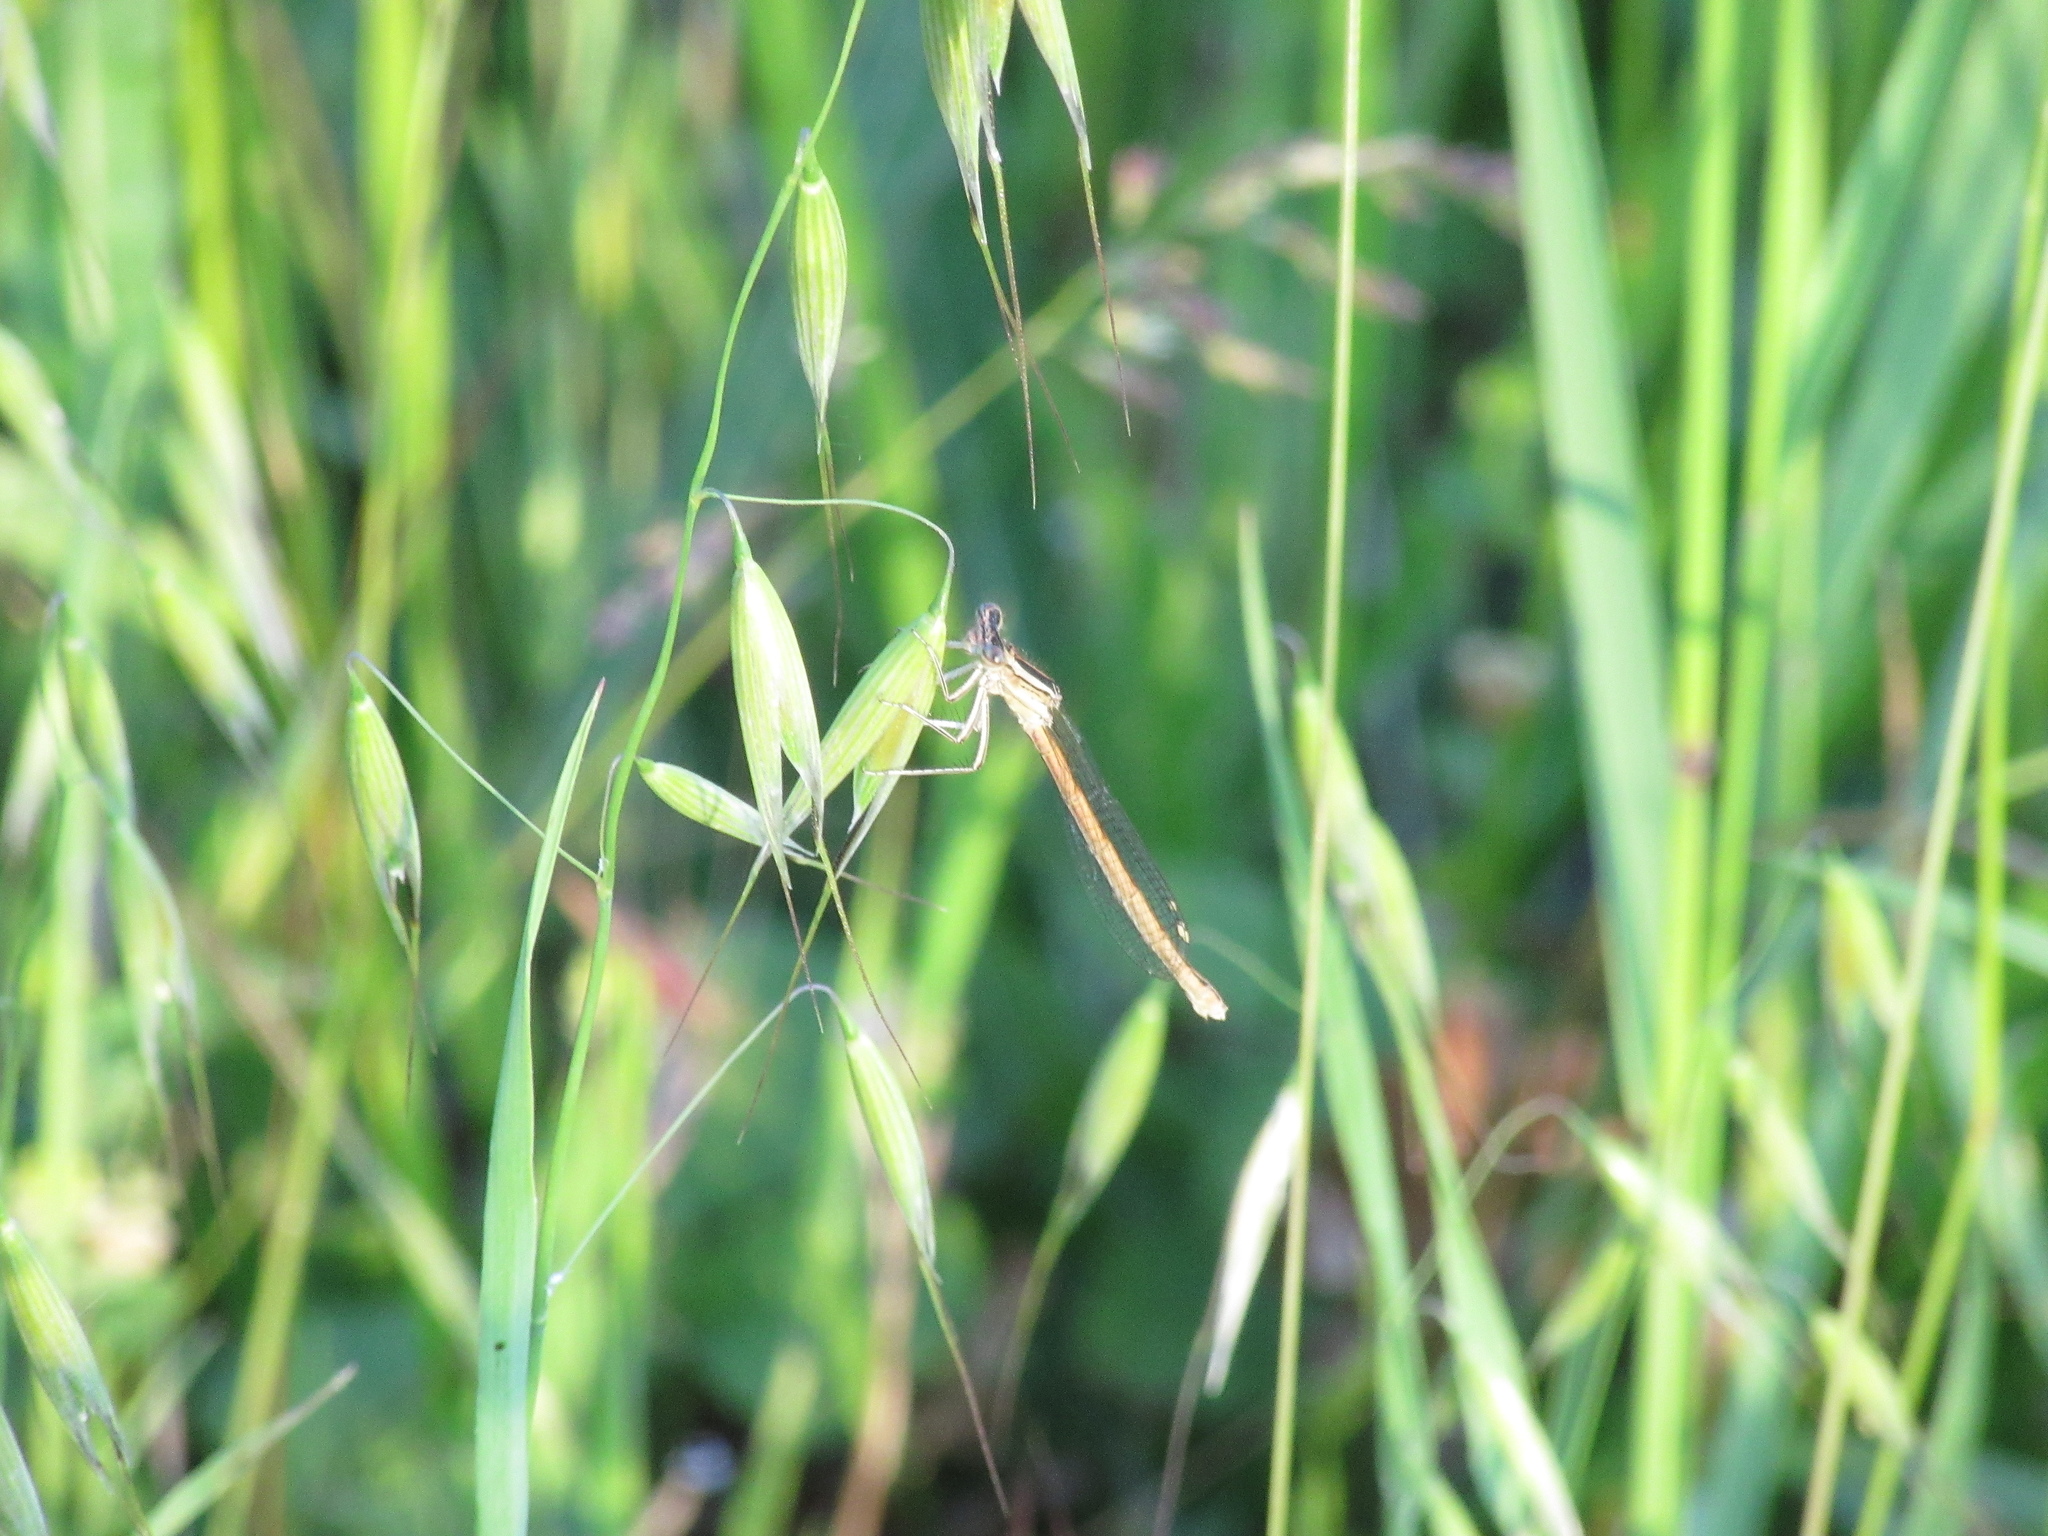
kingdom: Animalia
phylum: Arthropoda
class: Insecta
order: Odonata
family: Platycnemididae
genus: Platycnemis
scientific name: Platycnemis acutipennis
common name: Orange featherleg
